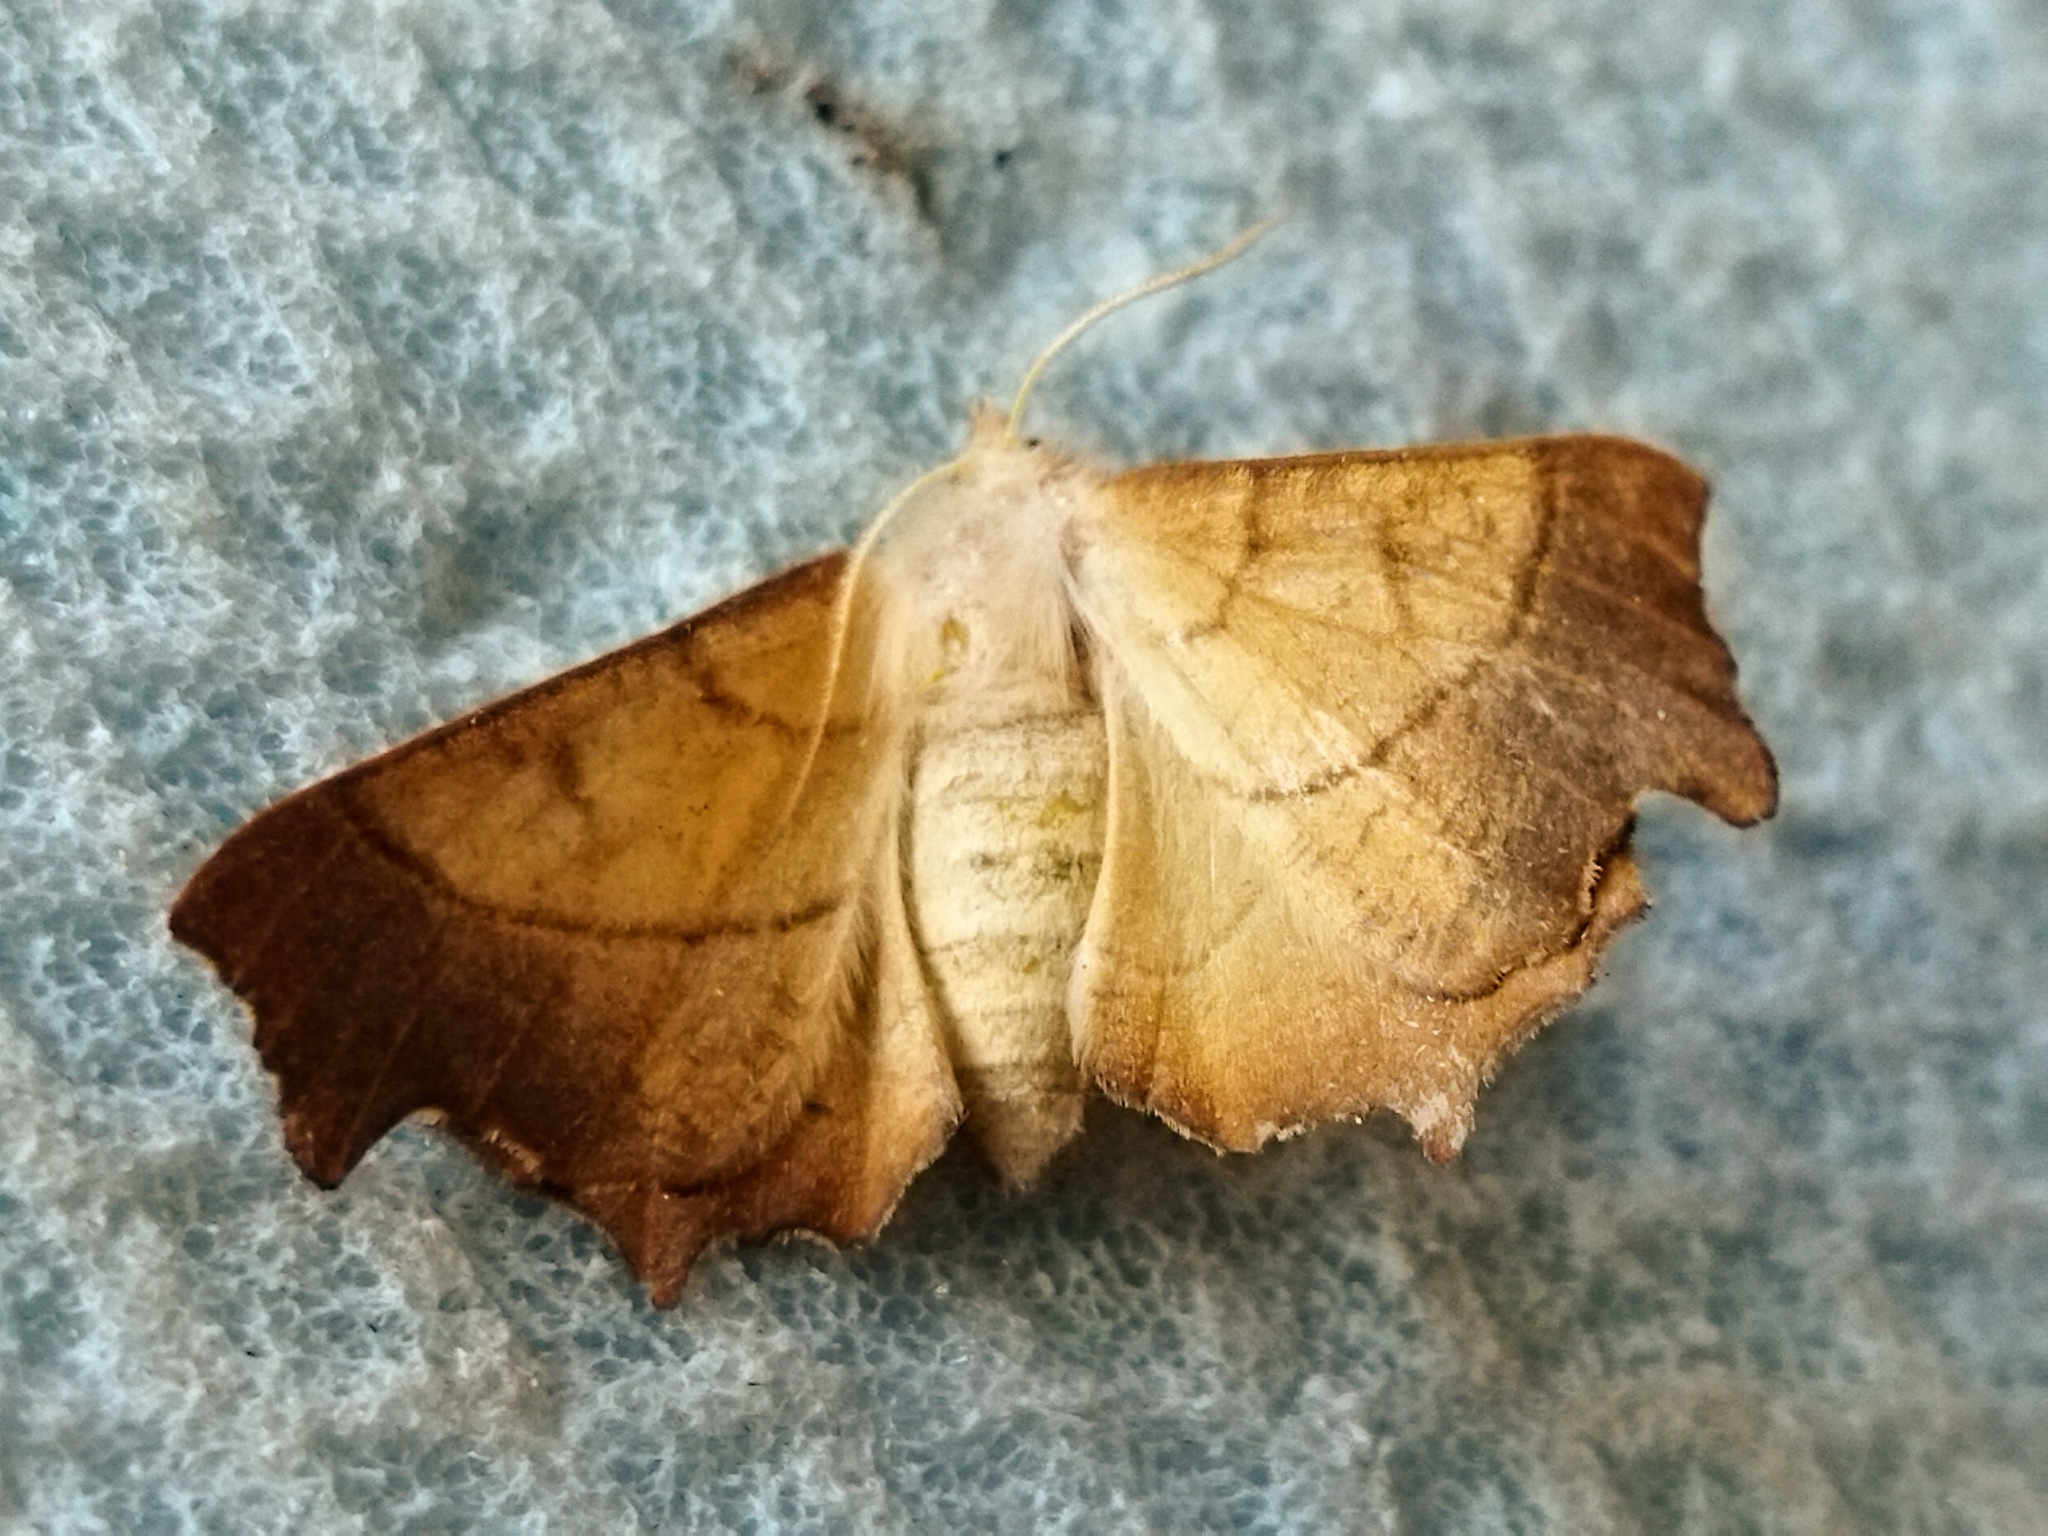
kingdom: Animalia
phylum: Arthropoda
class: Insecta
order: Lepidoptera
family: Geometridae
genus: Ennomos
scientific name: Ennomos fuscantaria
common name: Dusky thorn
